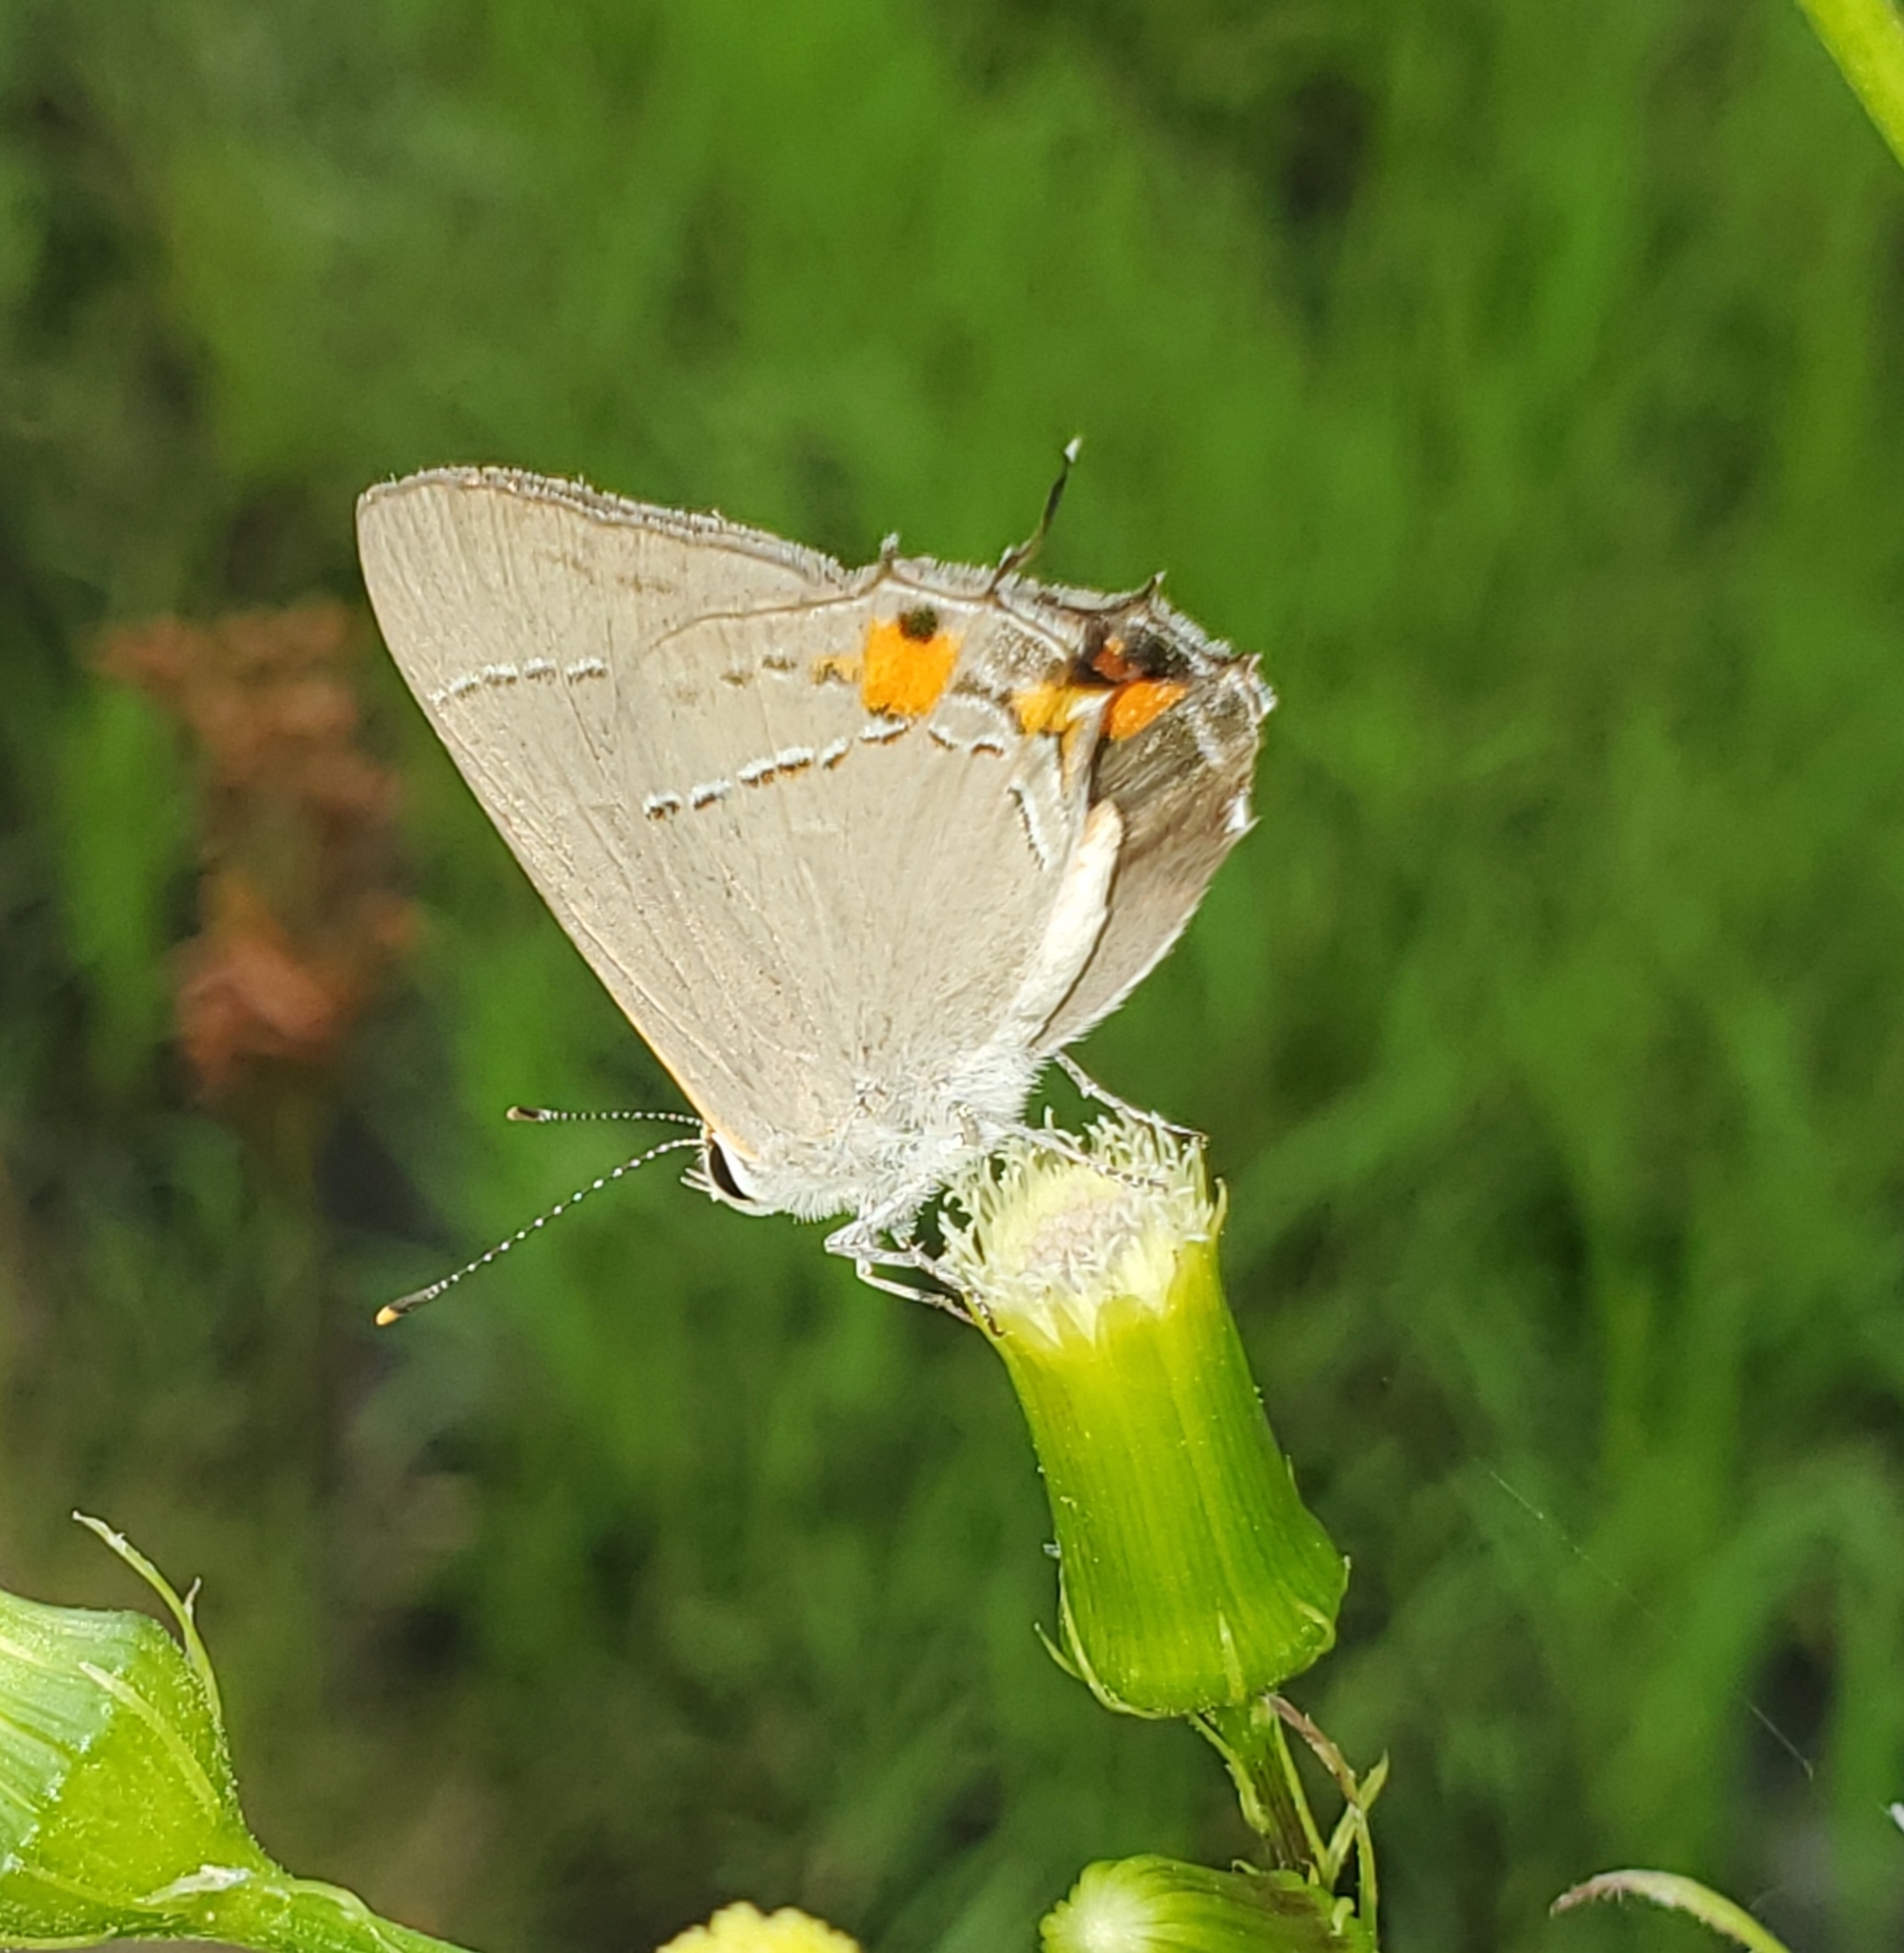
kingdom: Animalia
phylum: Arthropoda
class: Insecta
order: Lepidoptera
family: Lycaenidae
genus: Strymon
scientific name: Strymon melinus
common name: Gray hairstreak
